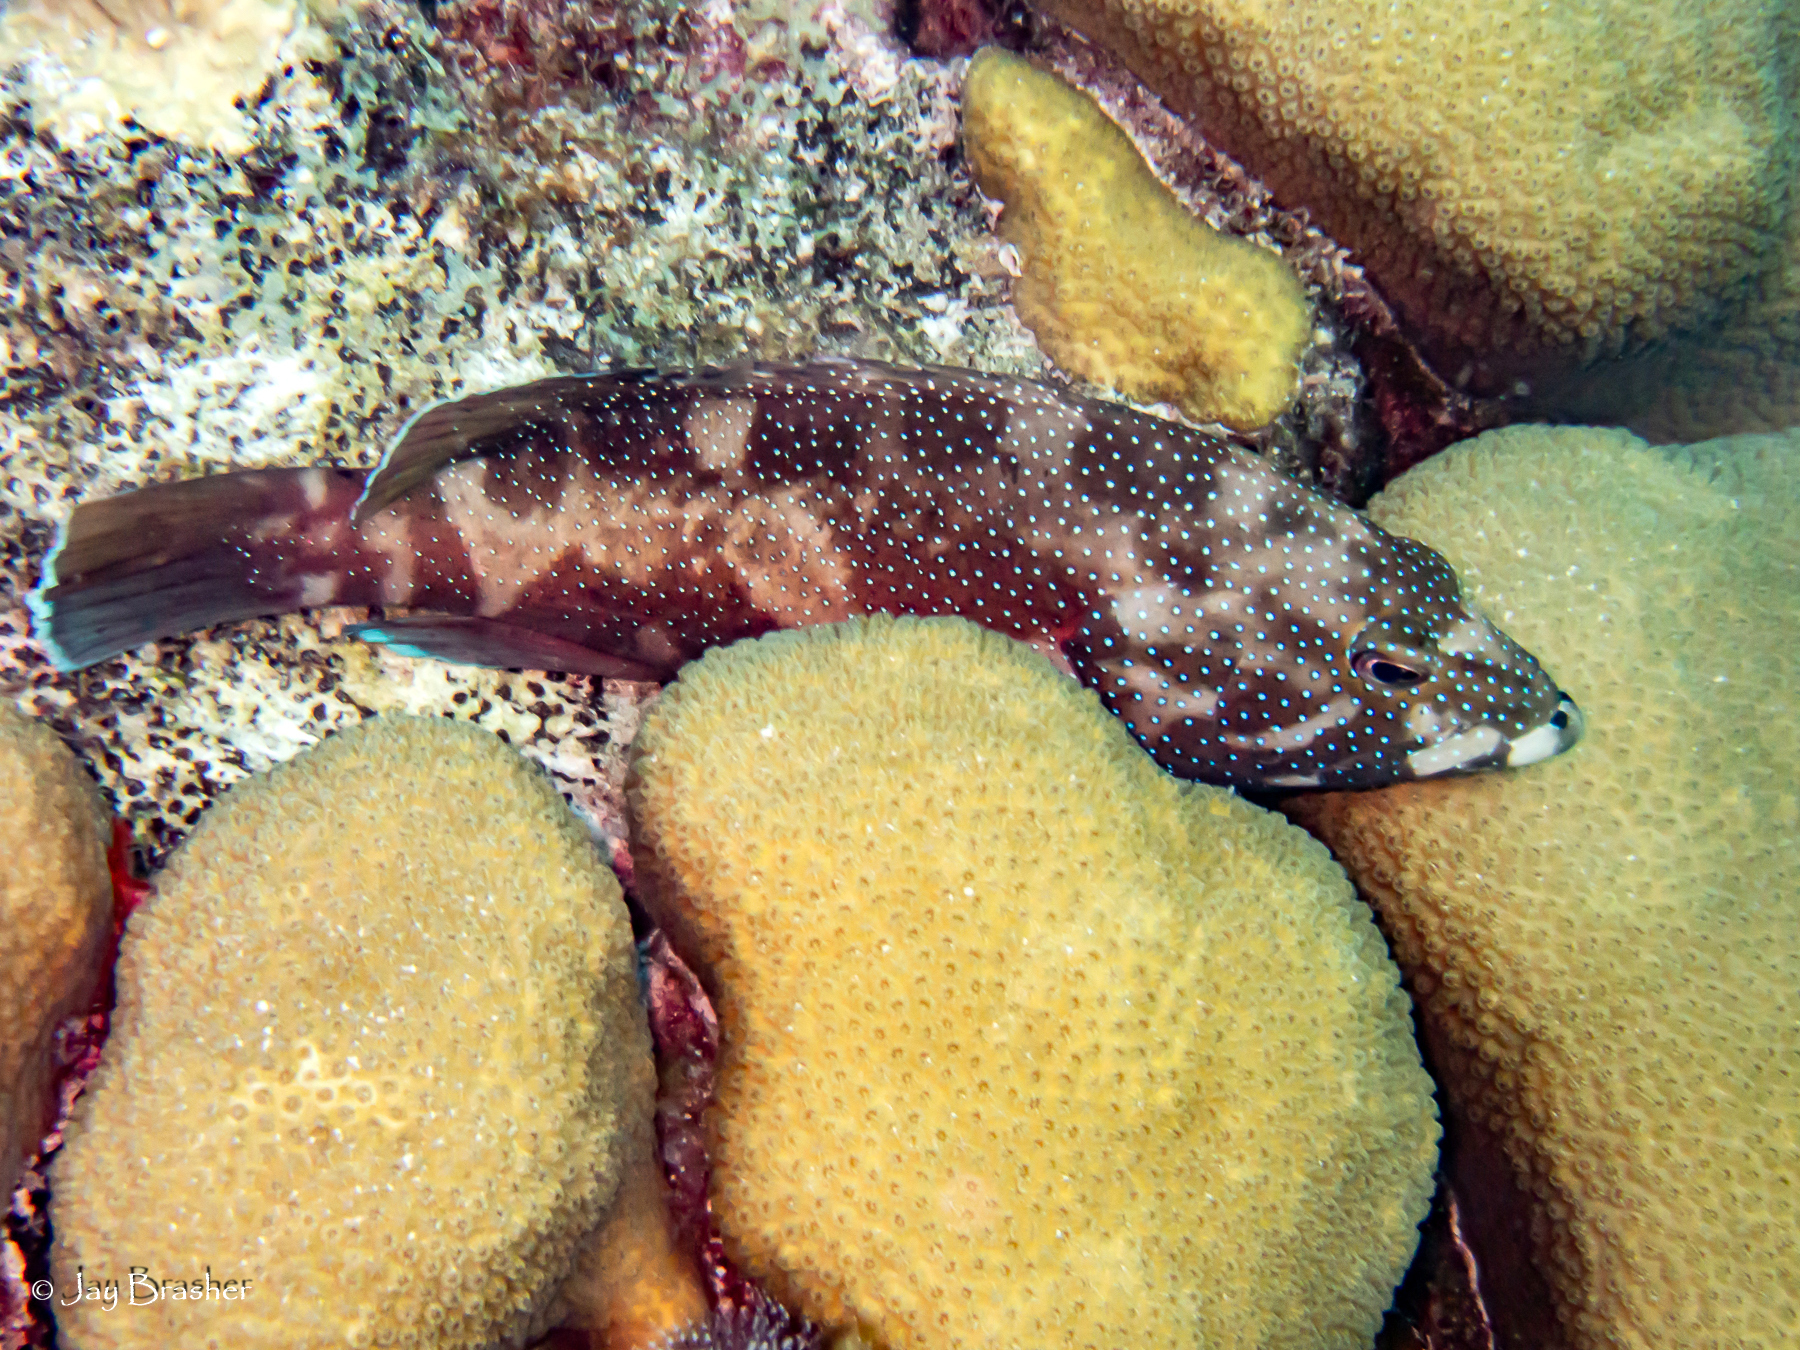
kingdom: Animalia
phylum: Chordata
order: Perciformes
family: Serranidae
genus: Cephalopholis
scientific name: Cephalopholis fulva
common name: Butterfish
